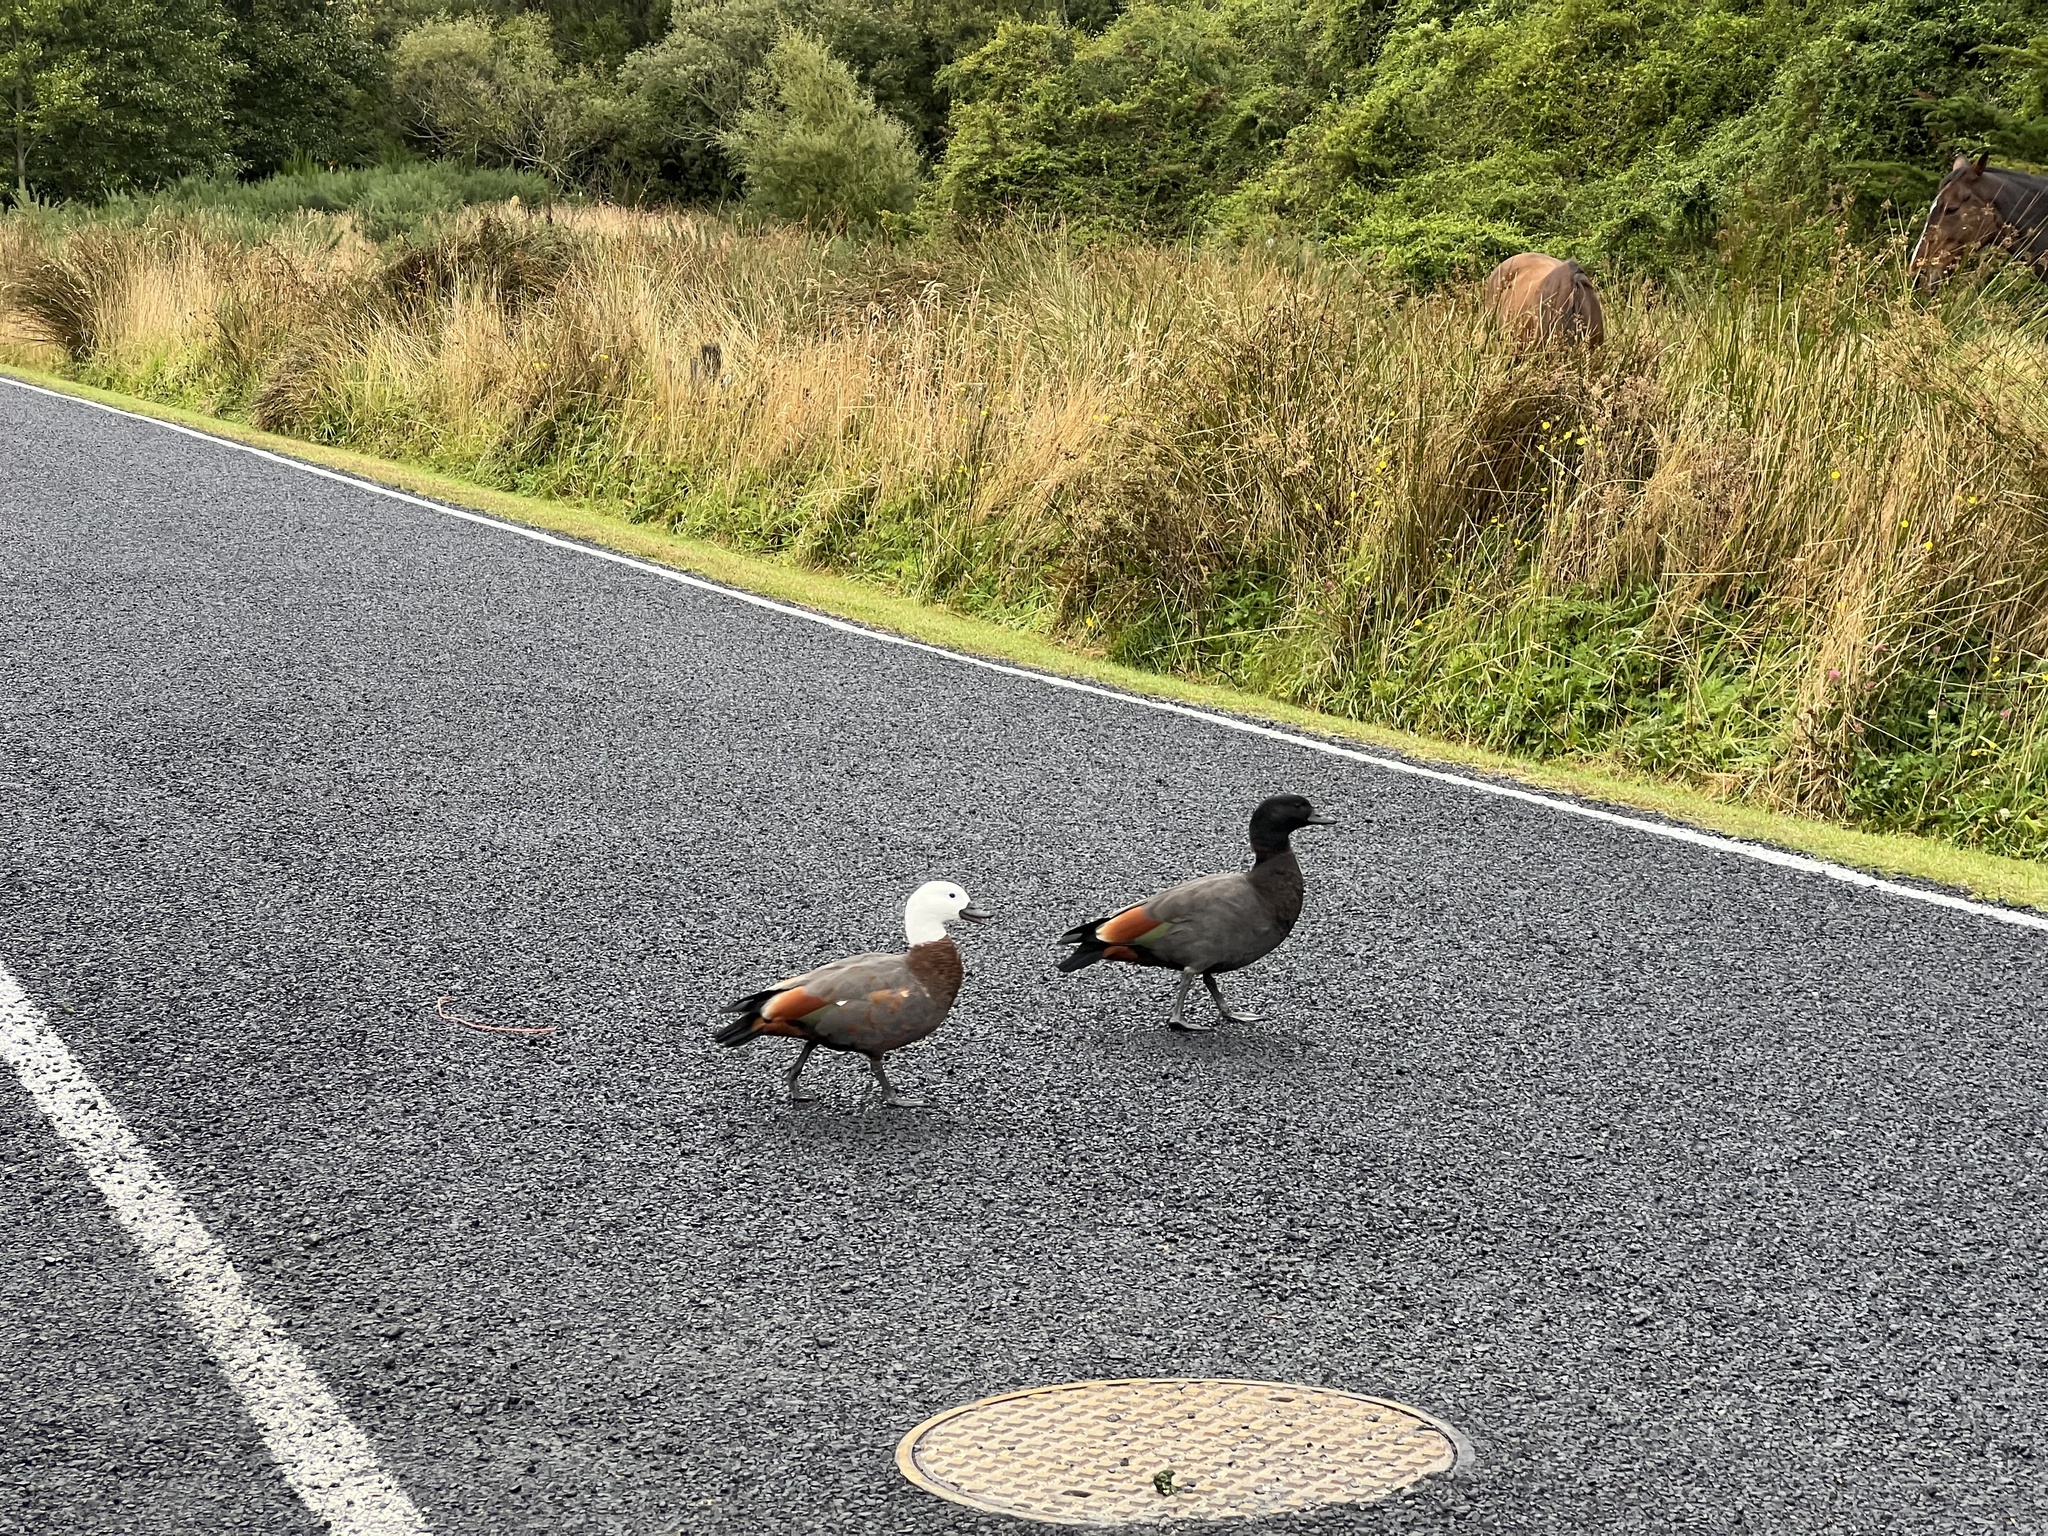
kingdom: Animalia
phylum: Chordata
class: Aves
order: Anseriformes
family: Anatidae
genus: Tadorna
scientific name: Tadorna variegata
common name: Paradise shelduck
